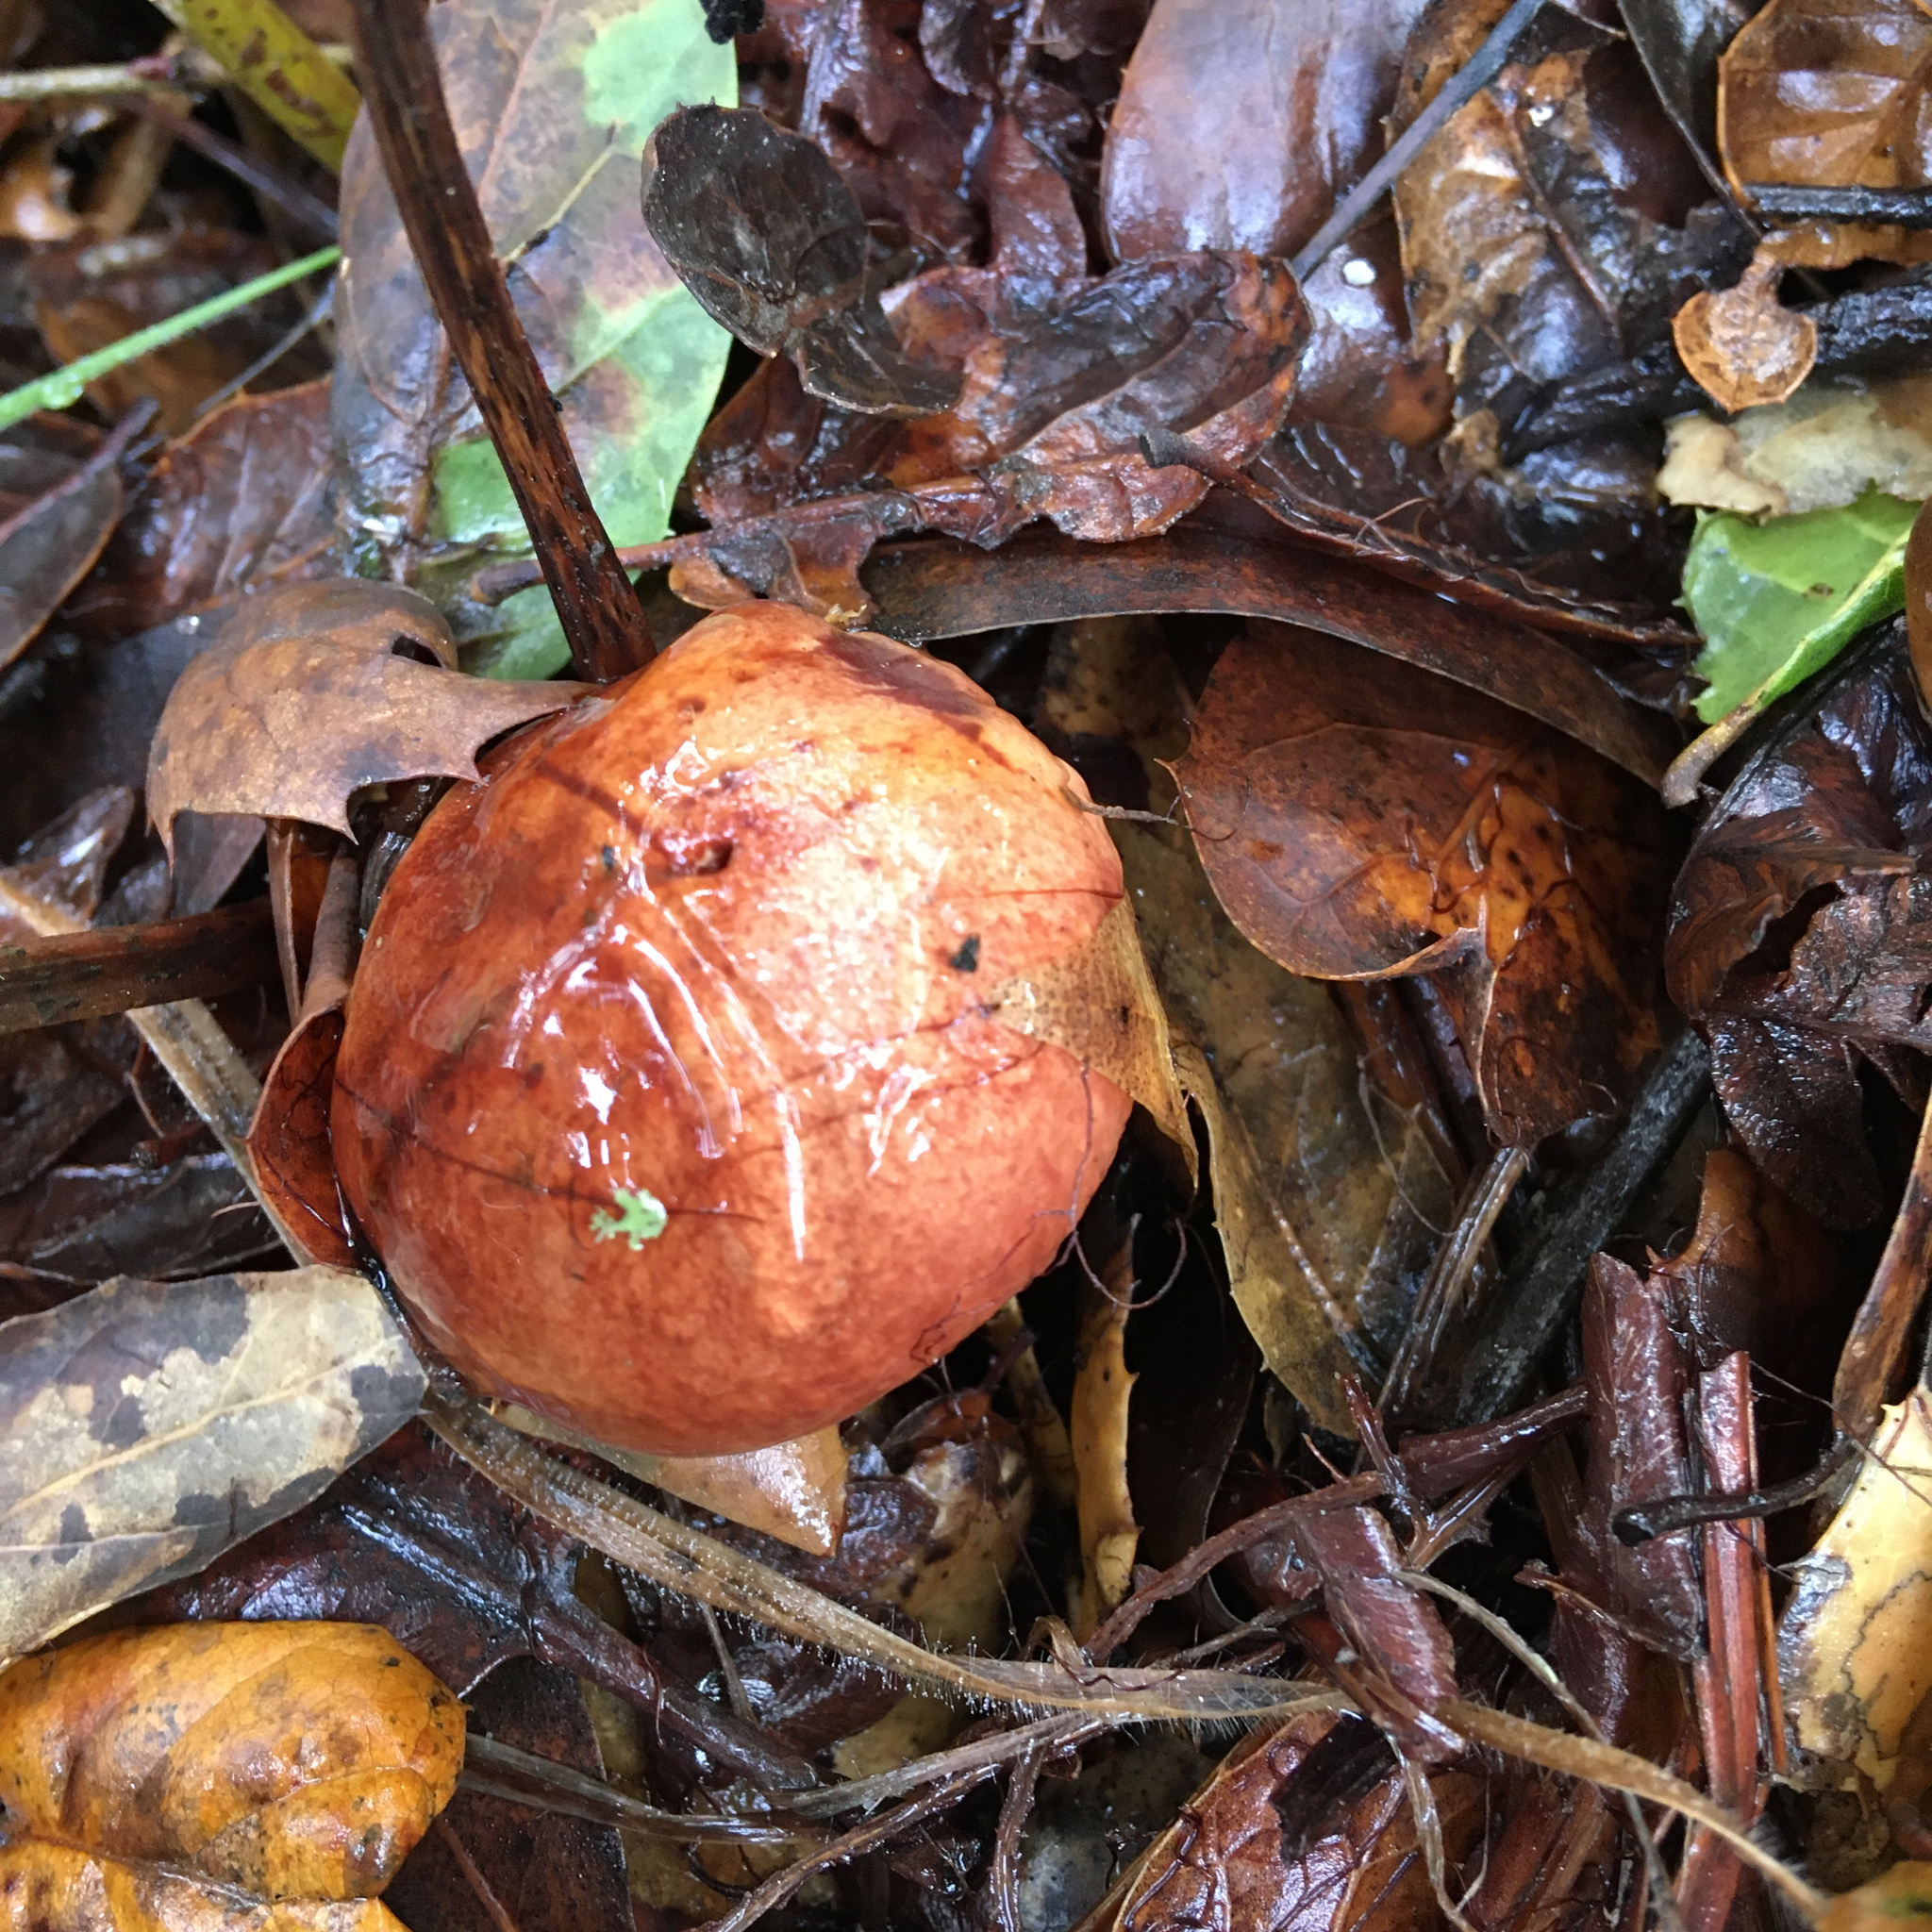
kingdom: Fungi
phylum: Basidiomycota
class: Agaricomycetes
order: Boletales
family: Boletaceae
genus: Aureoboletus
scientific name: Aureoboletus flaviporus
